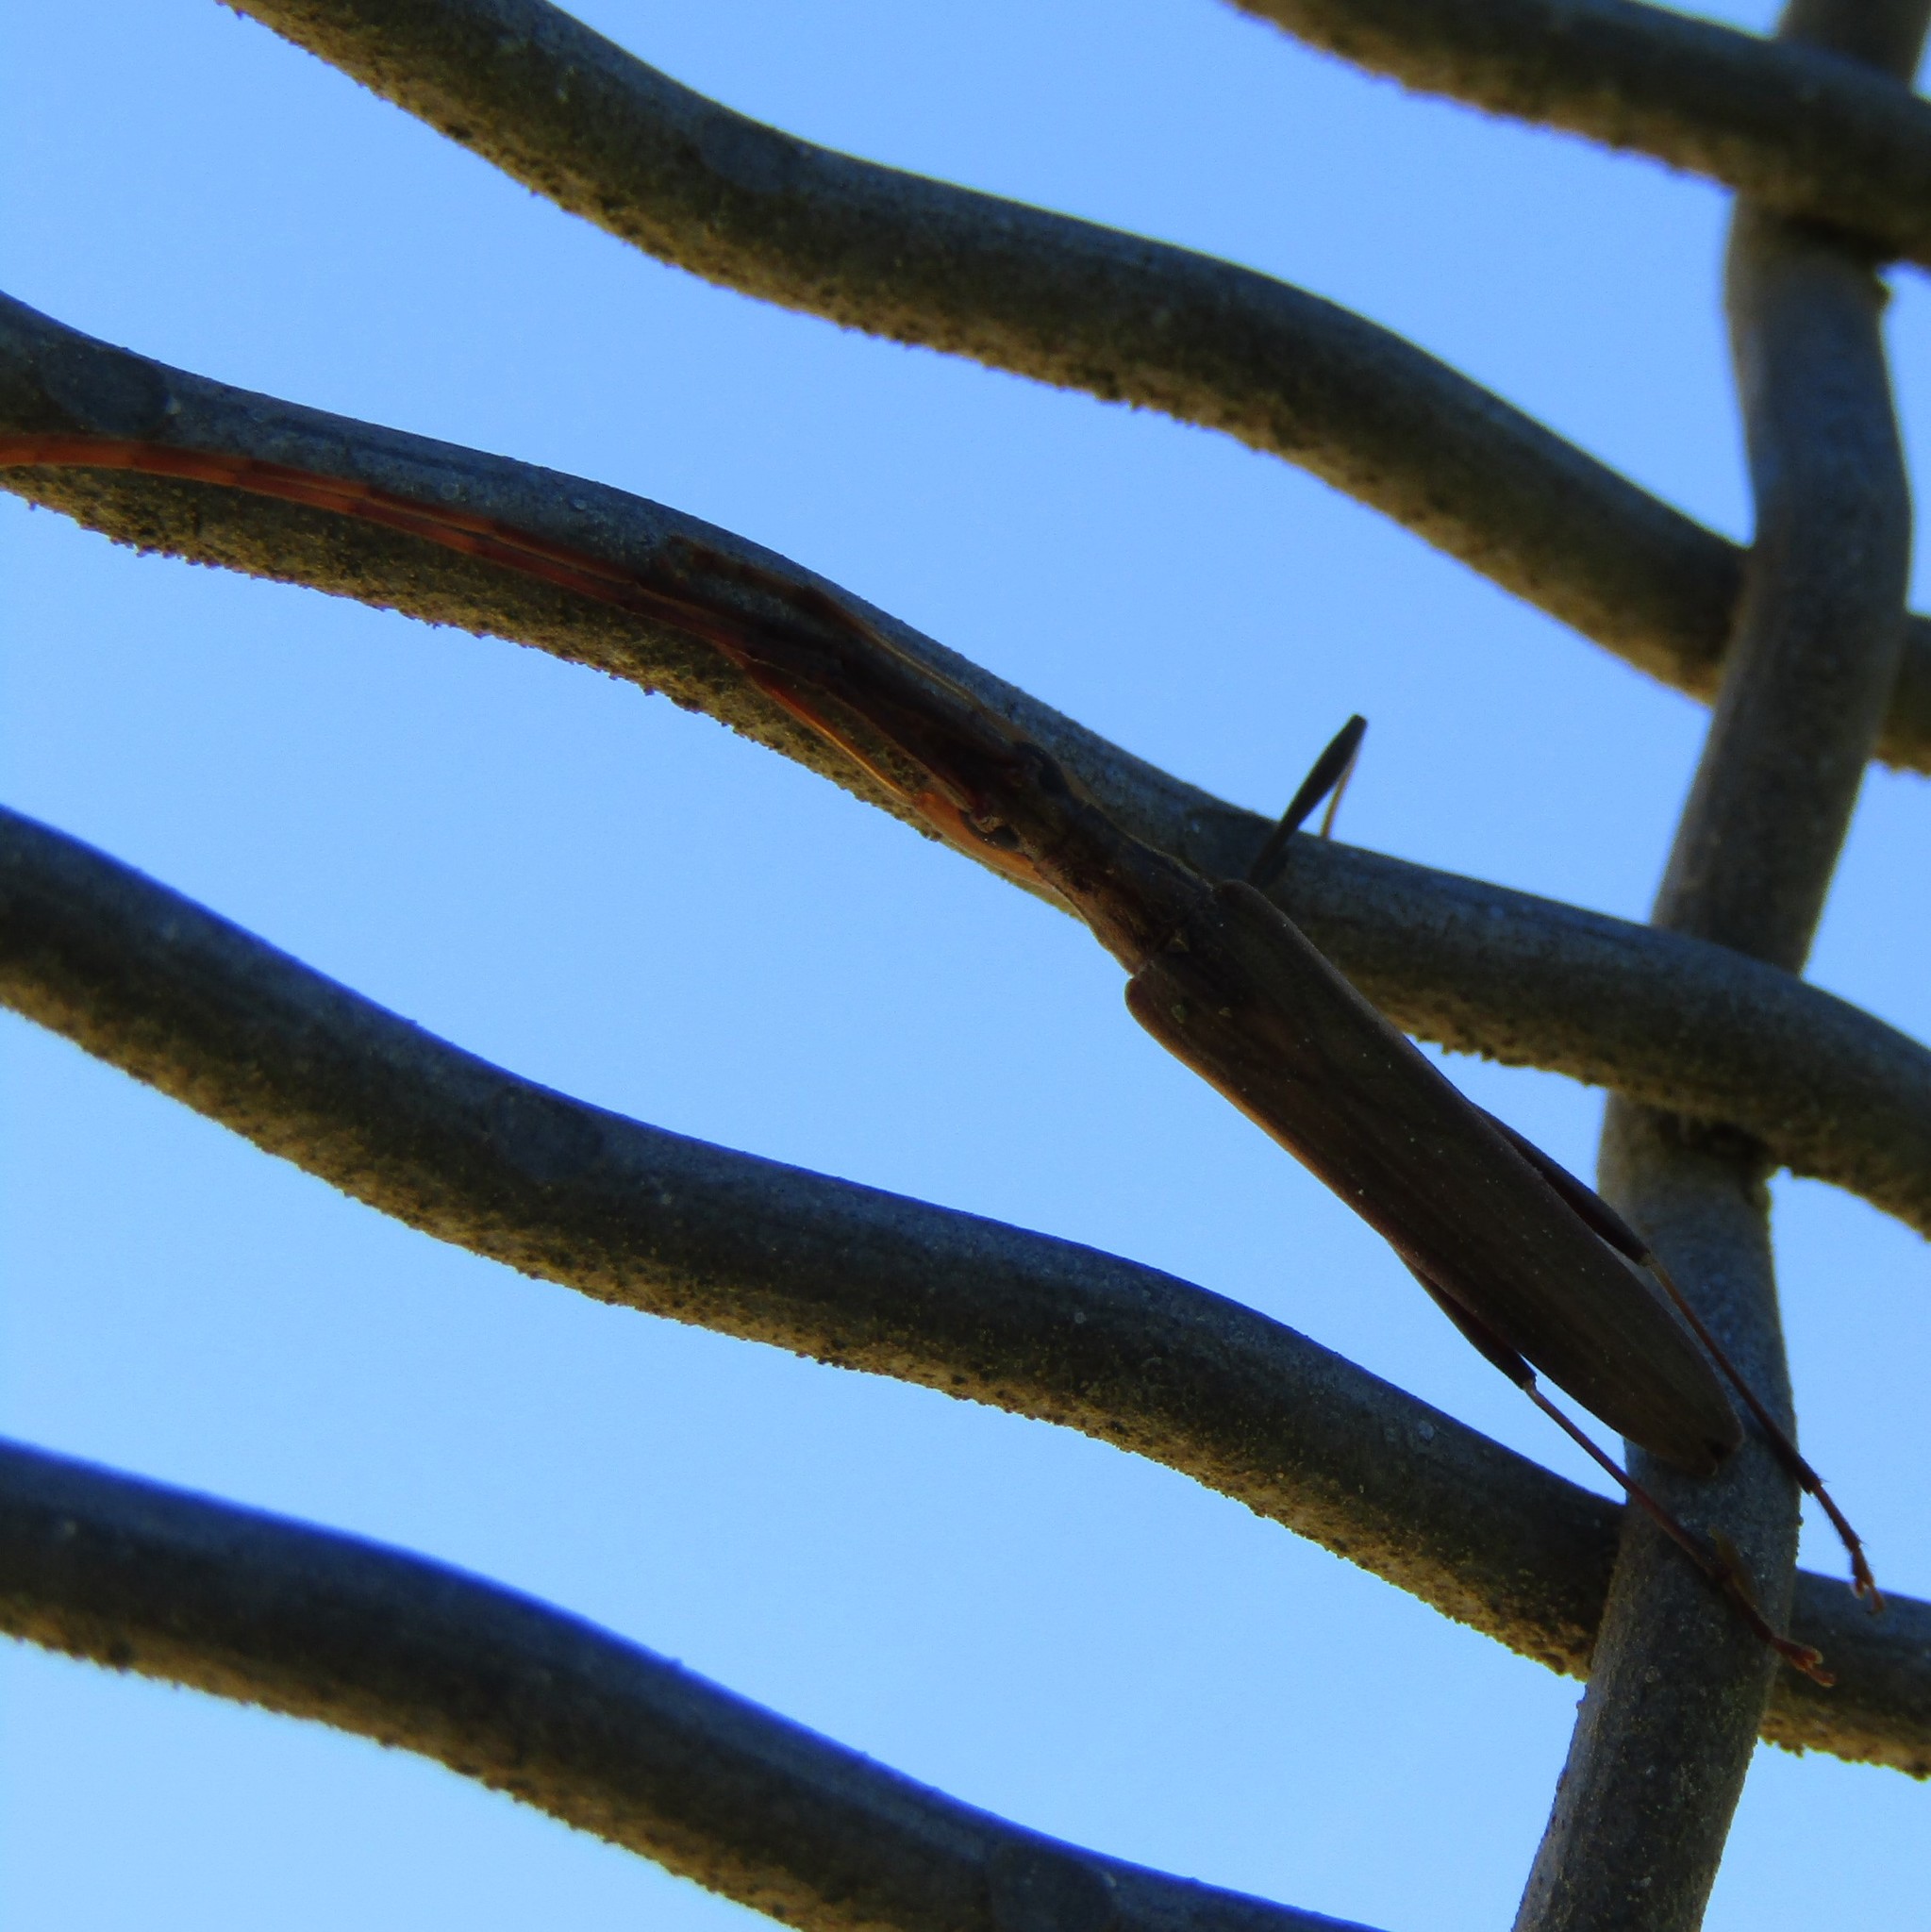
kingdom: Animalia
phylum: Arthropoda
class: Insecta
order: Coleoptera
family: Cerambycidae
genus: Stenopotes
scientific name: Stenopotes pallidus
